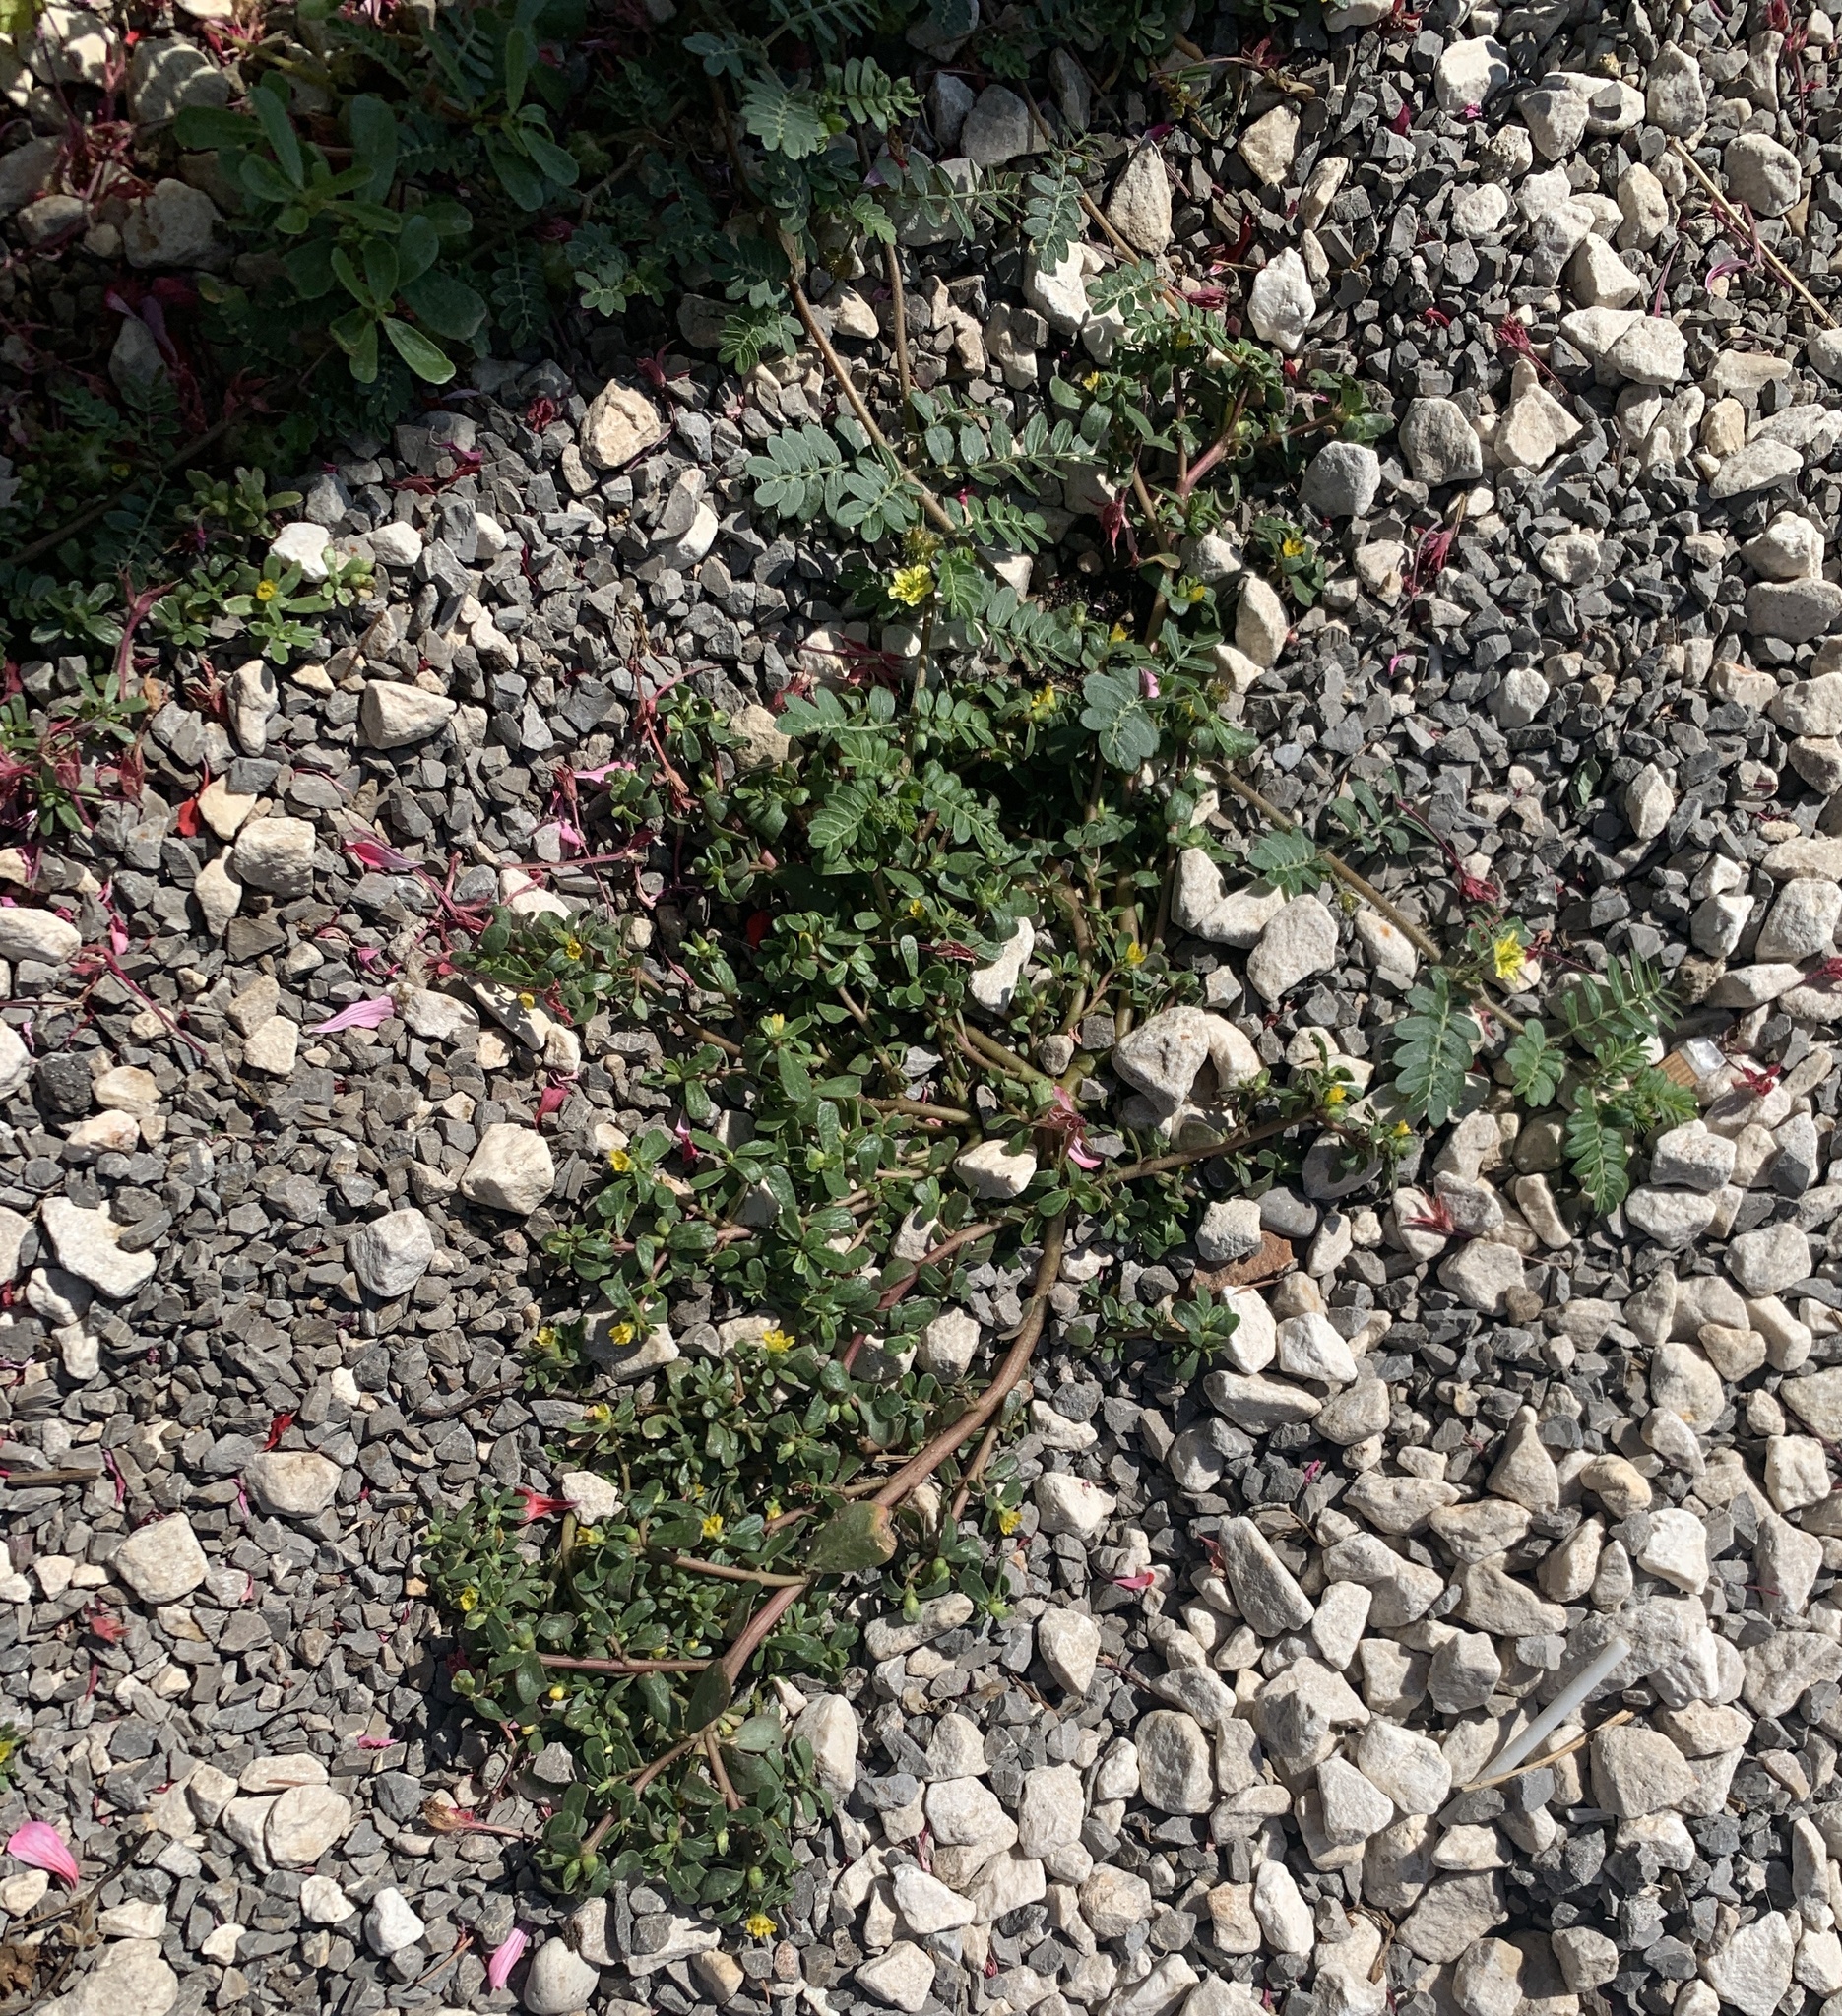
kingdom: Plantae
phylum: Tracheophyta
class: Magnoliopsida
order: Zygophyllales
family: Zygophyllaceae
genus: Tribulus
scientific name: Tribulus terrestris
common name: Puncturevine
